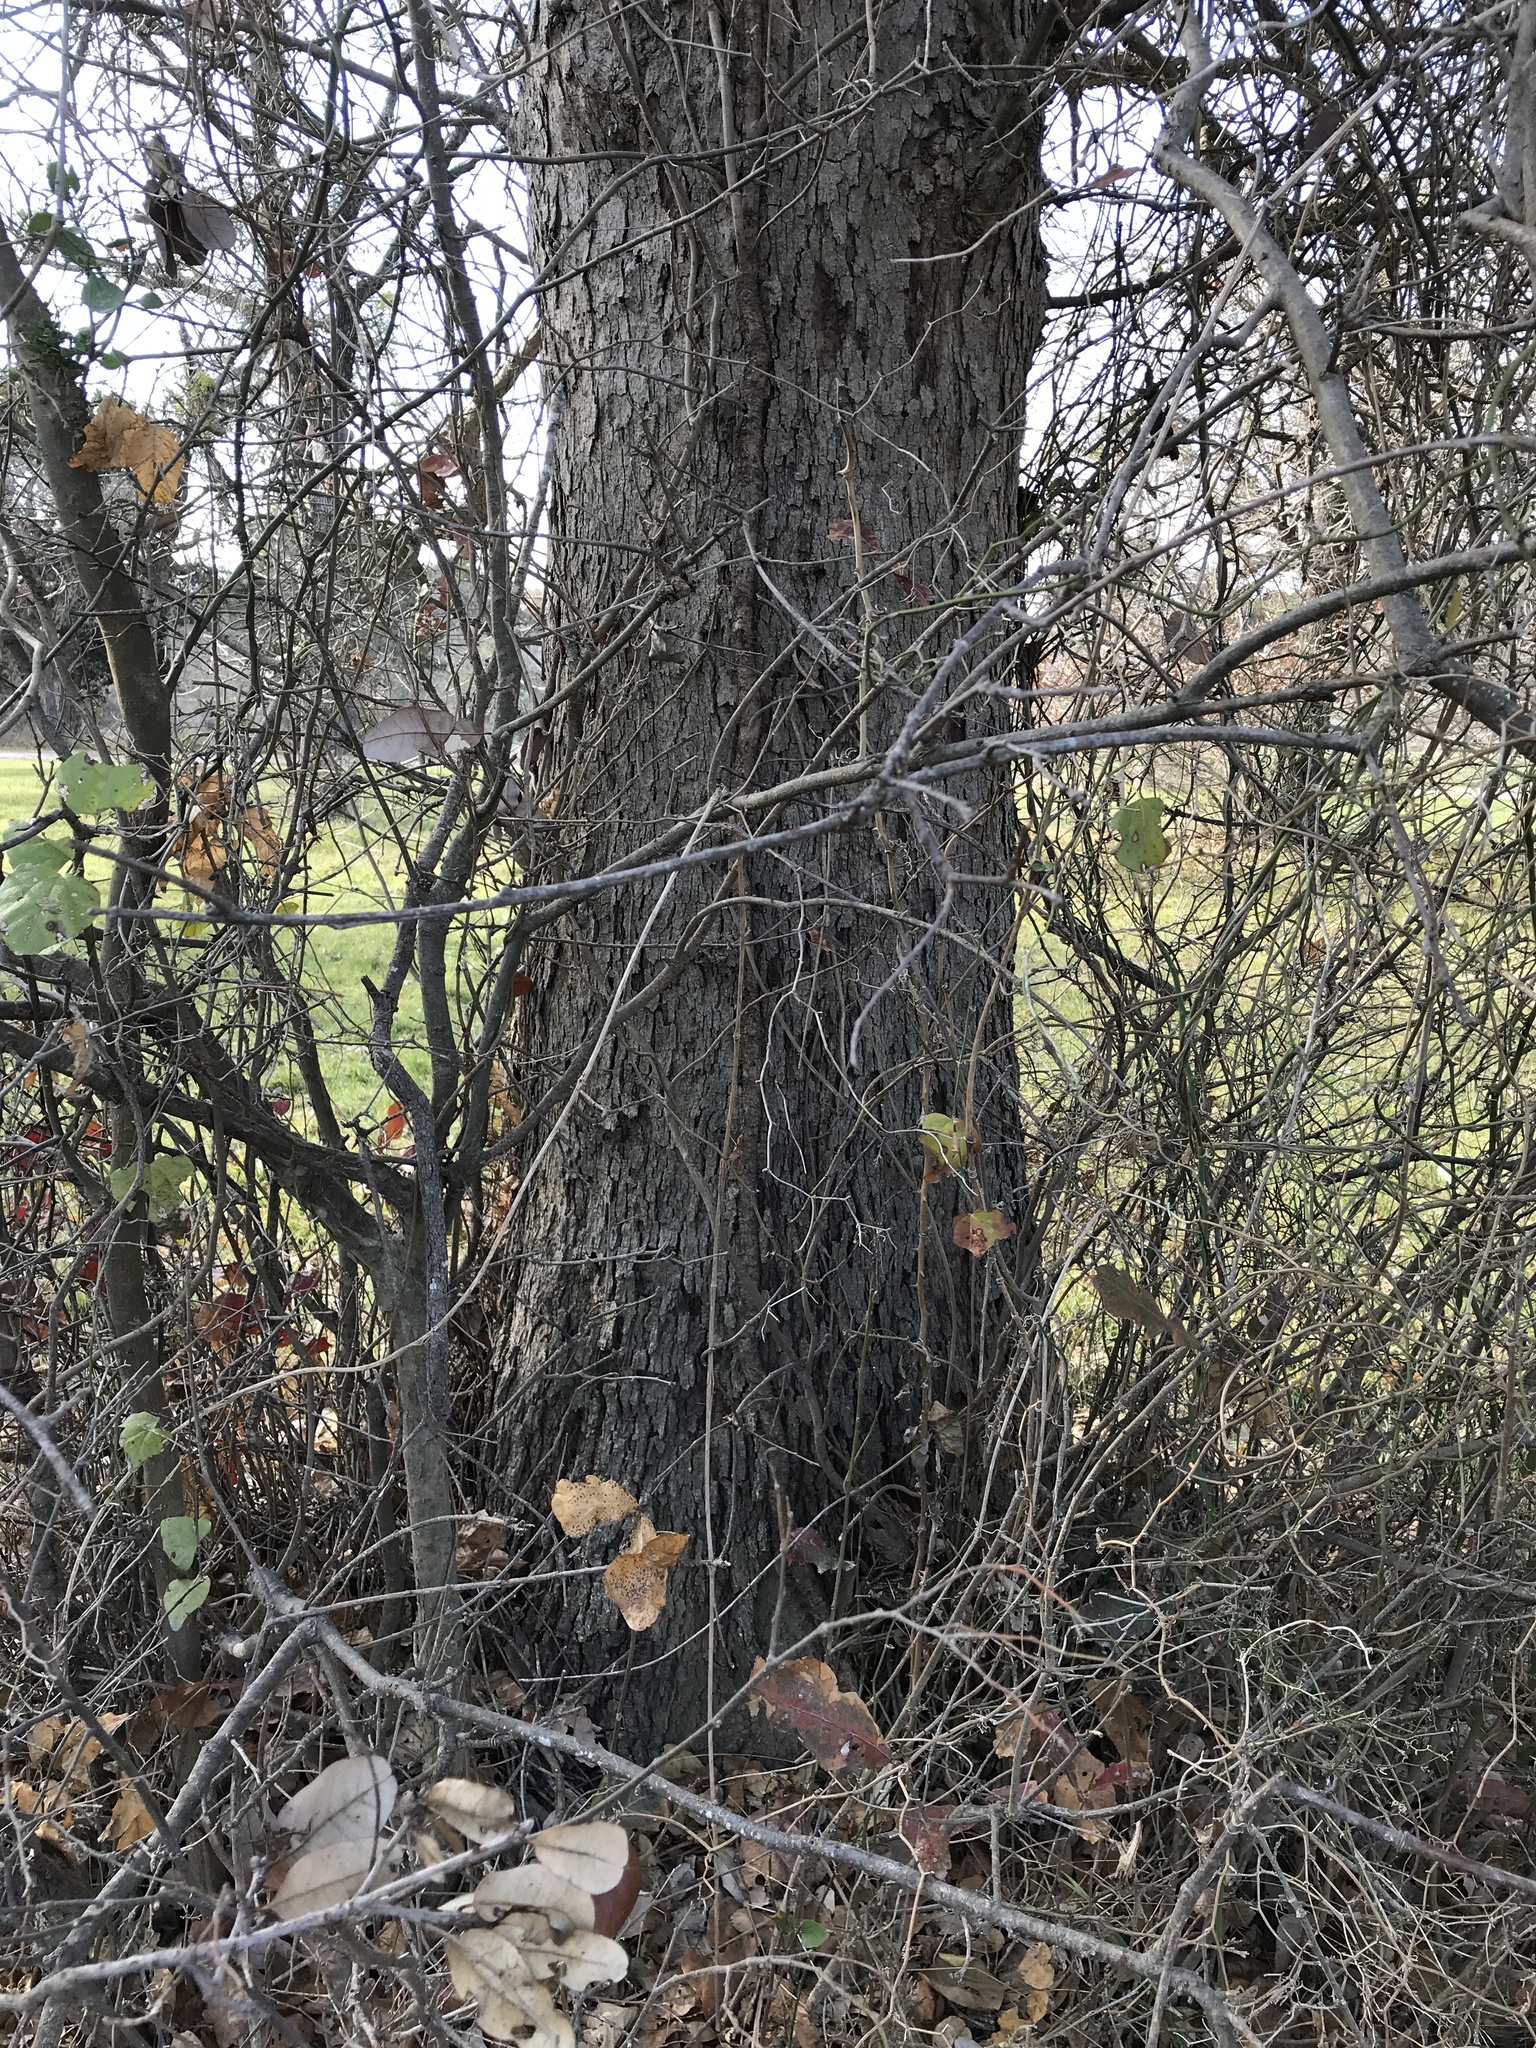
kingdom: Plantae
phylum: Tracheophyta
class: Magnoliopsida
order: Fagales
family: Fagaceae
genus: Quercus
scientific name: Quercus sinuata
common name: Durand oak
